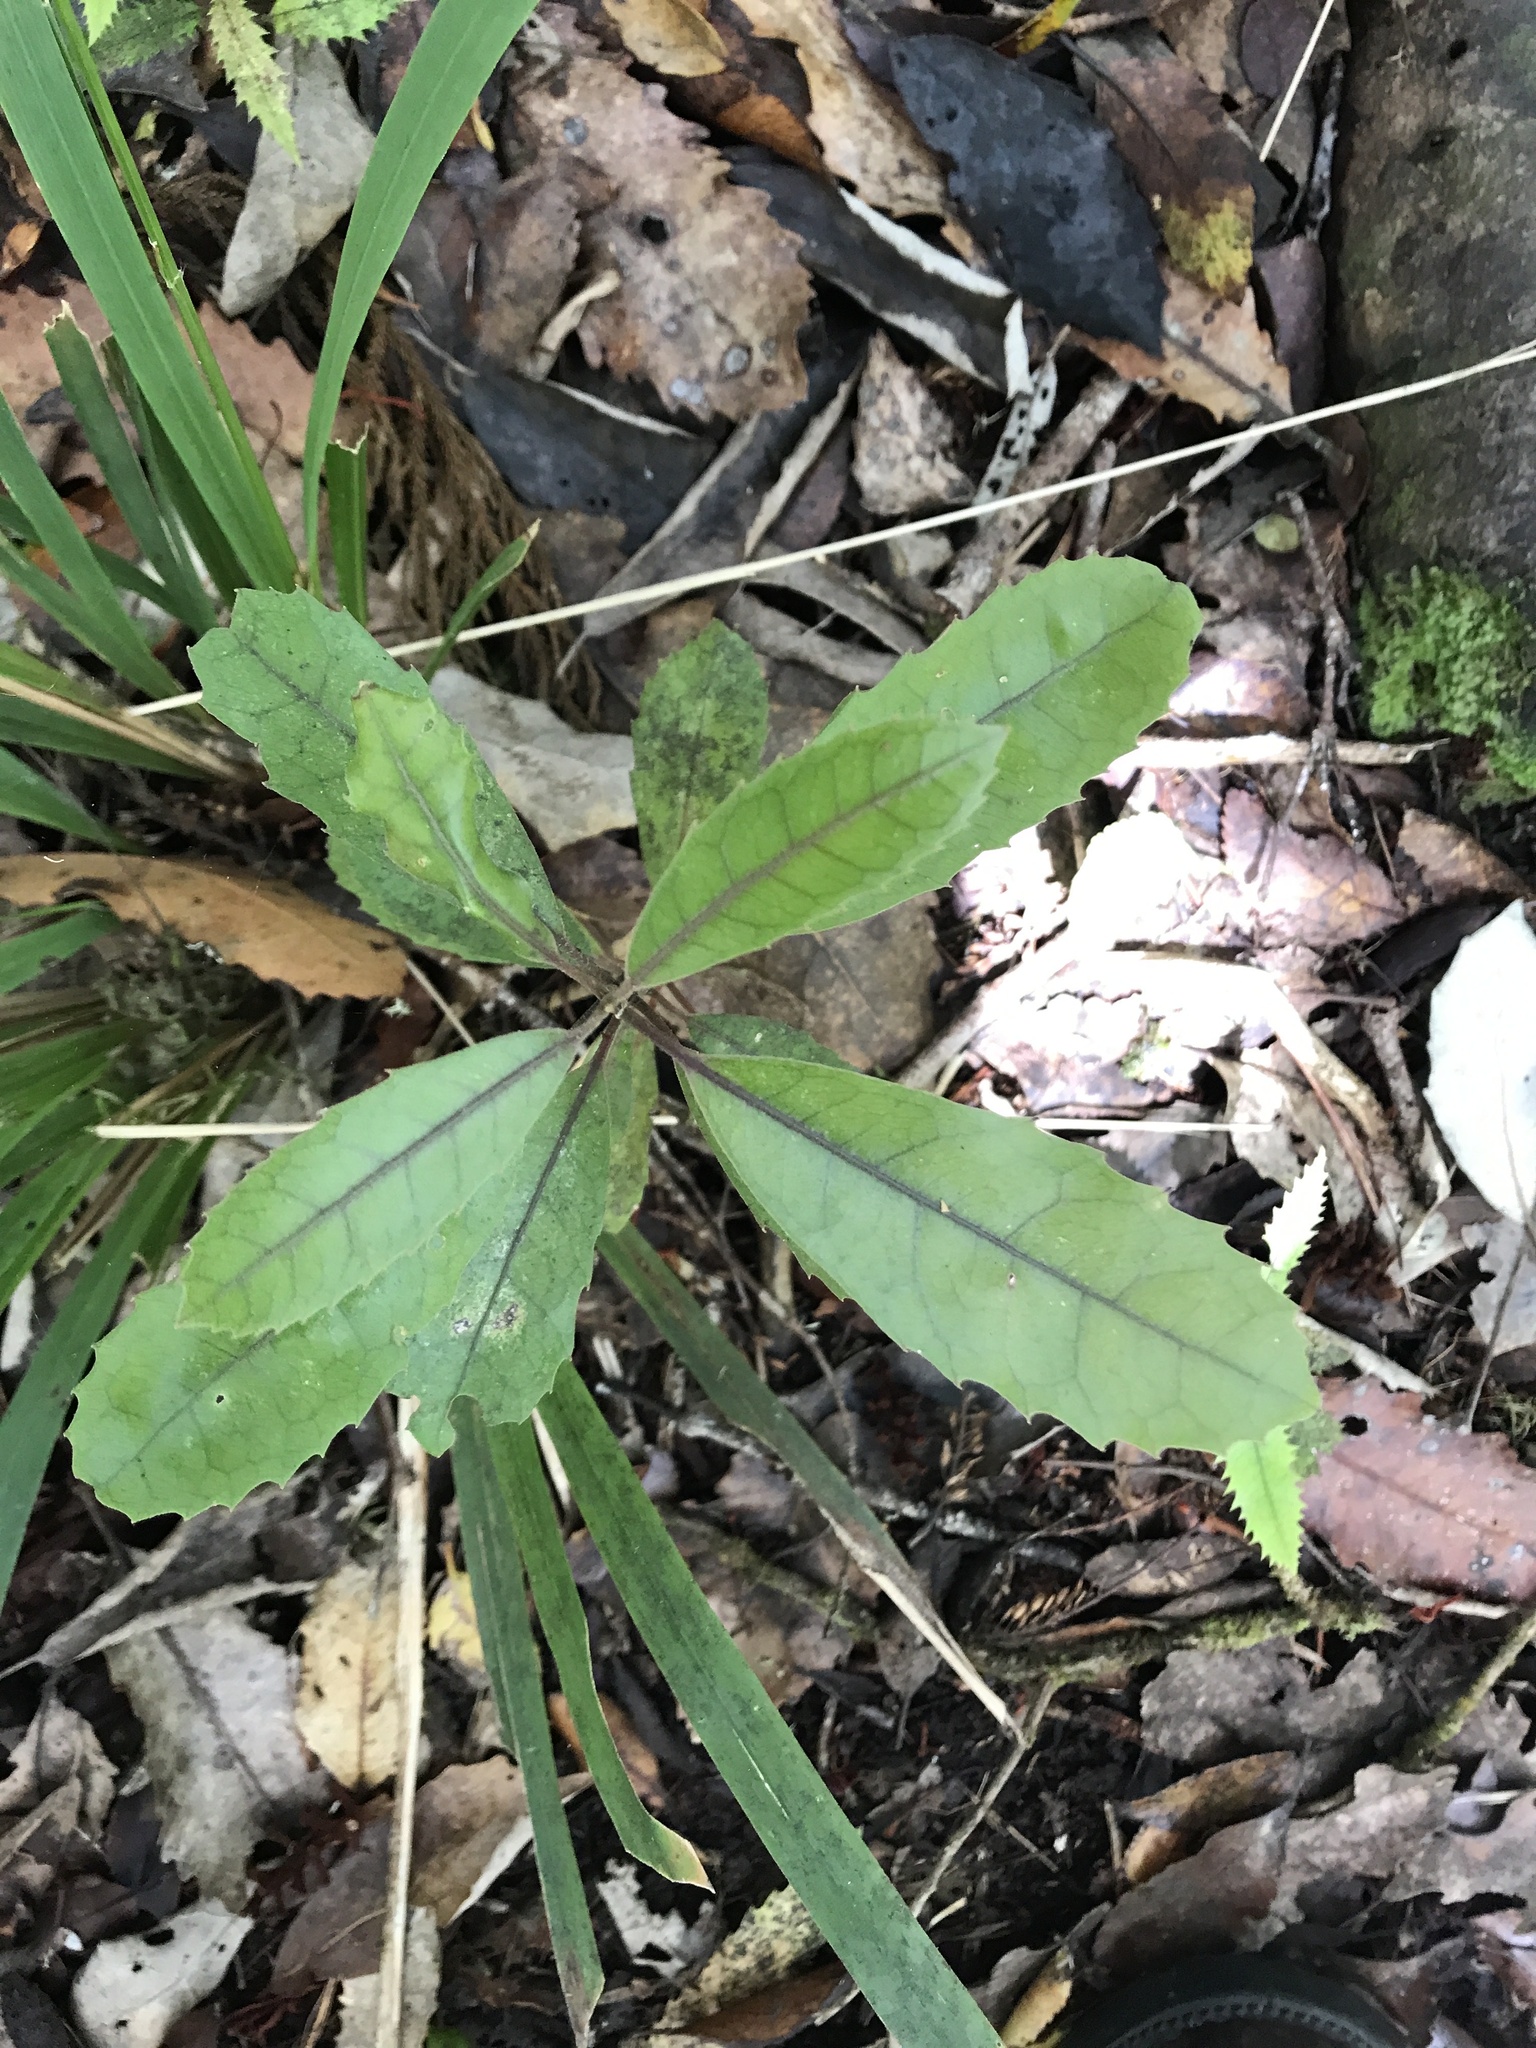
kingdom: Plantae
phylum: Tracheophyta
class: Magnoliopsida
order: Laurales
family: Monimiaceae
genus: Hedycarya
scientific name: Hedycarya arborea
